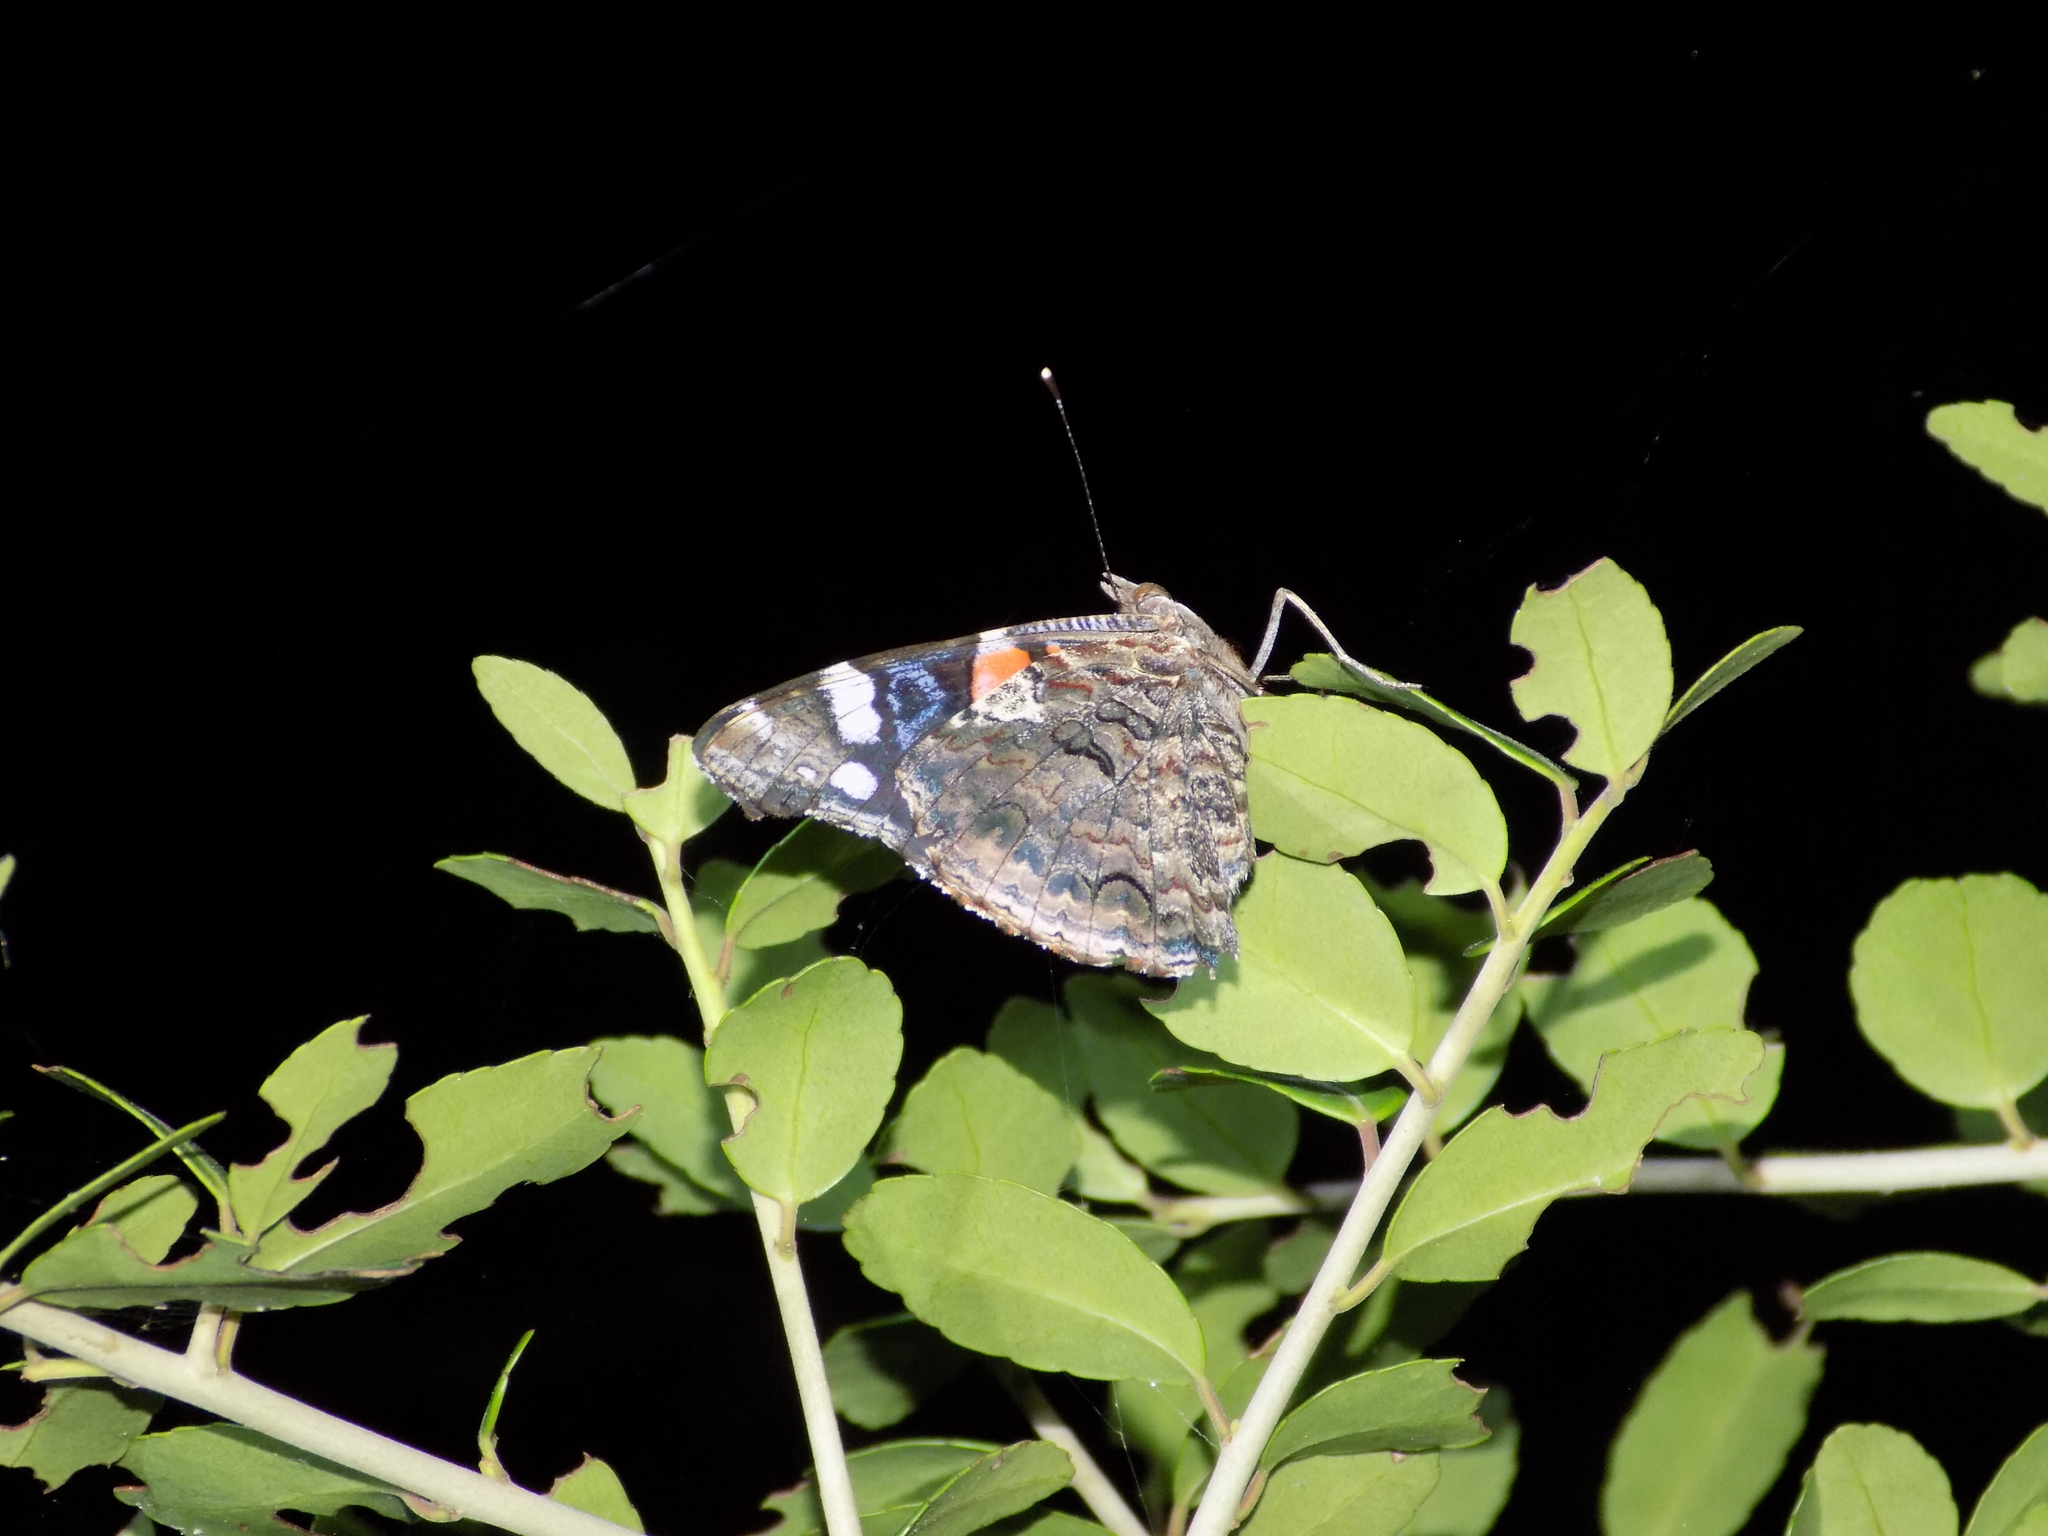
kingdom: Animalia
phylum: Arthropoda
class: Insecta
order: Lepidoptera
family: Nymphalidae
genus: Vanessa
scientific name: Vanessa atalanta
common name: Red admiral
